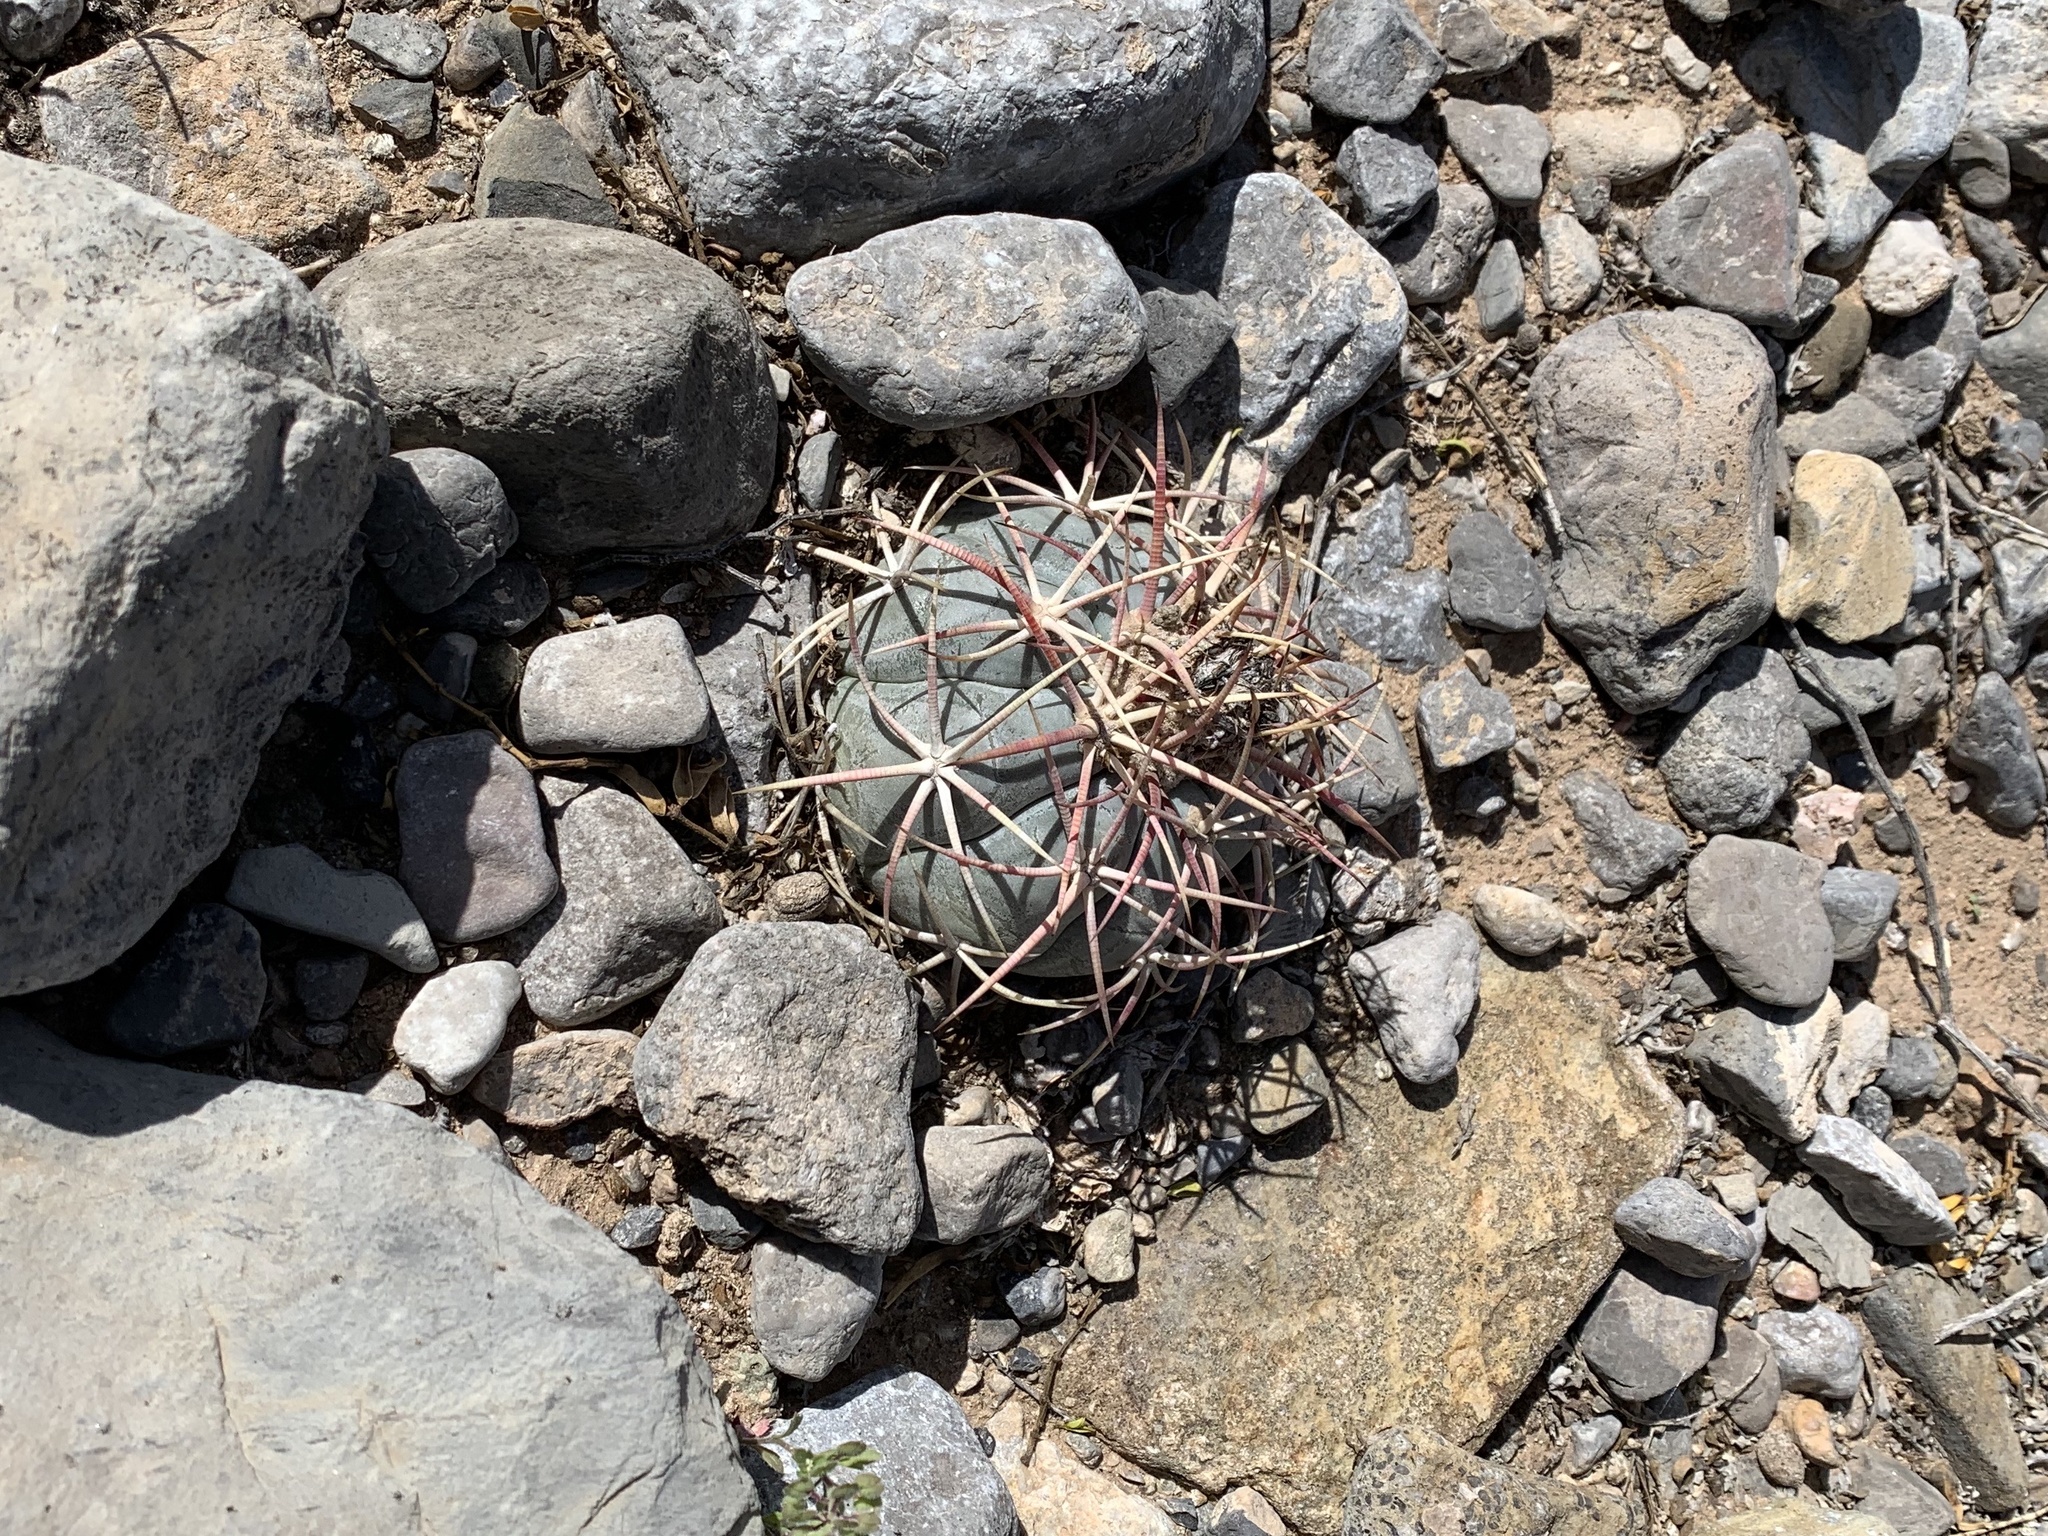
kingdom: Plantae
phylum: Tracheophyta
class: Magnoliopsida
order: Caryophyllales
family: Cactaceae
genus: Echinocactus
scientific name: Echinocactus horizonthalonius
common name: Devilshead
